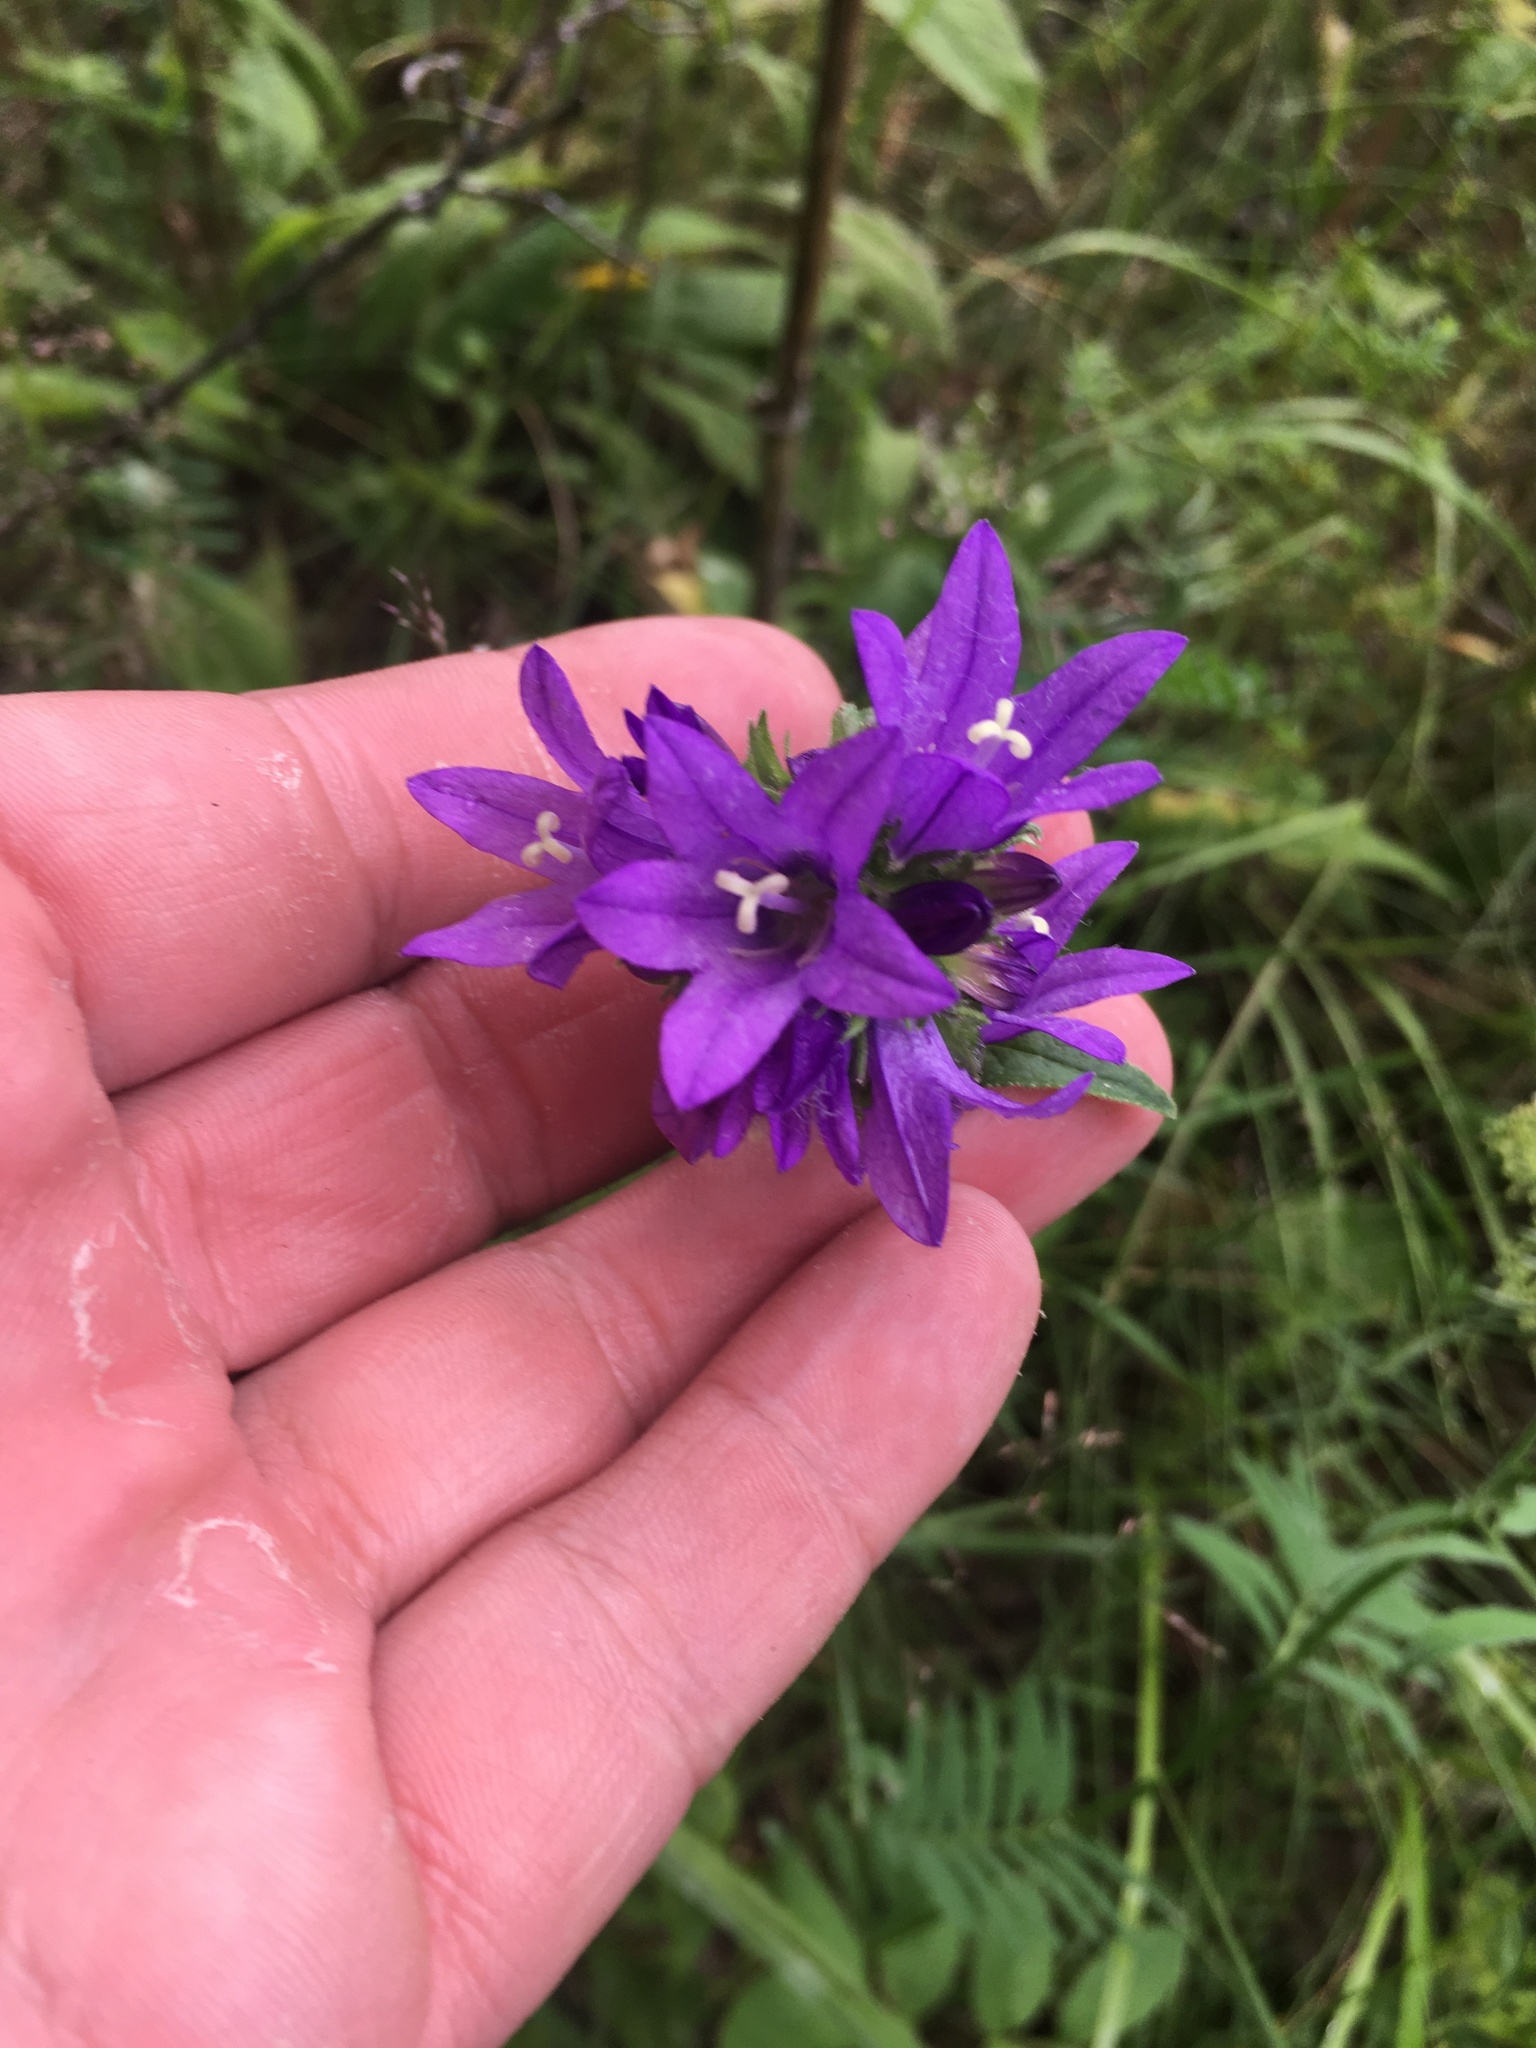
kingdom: Plantae
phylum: Tracheophyta
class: Magnoliopsida
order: Asterales
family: Campanulaceae
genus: Campanula
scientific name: Campanula glomerata
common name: Clustered bellflower
